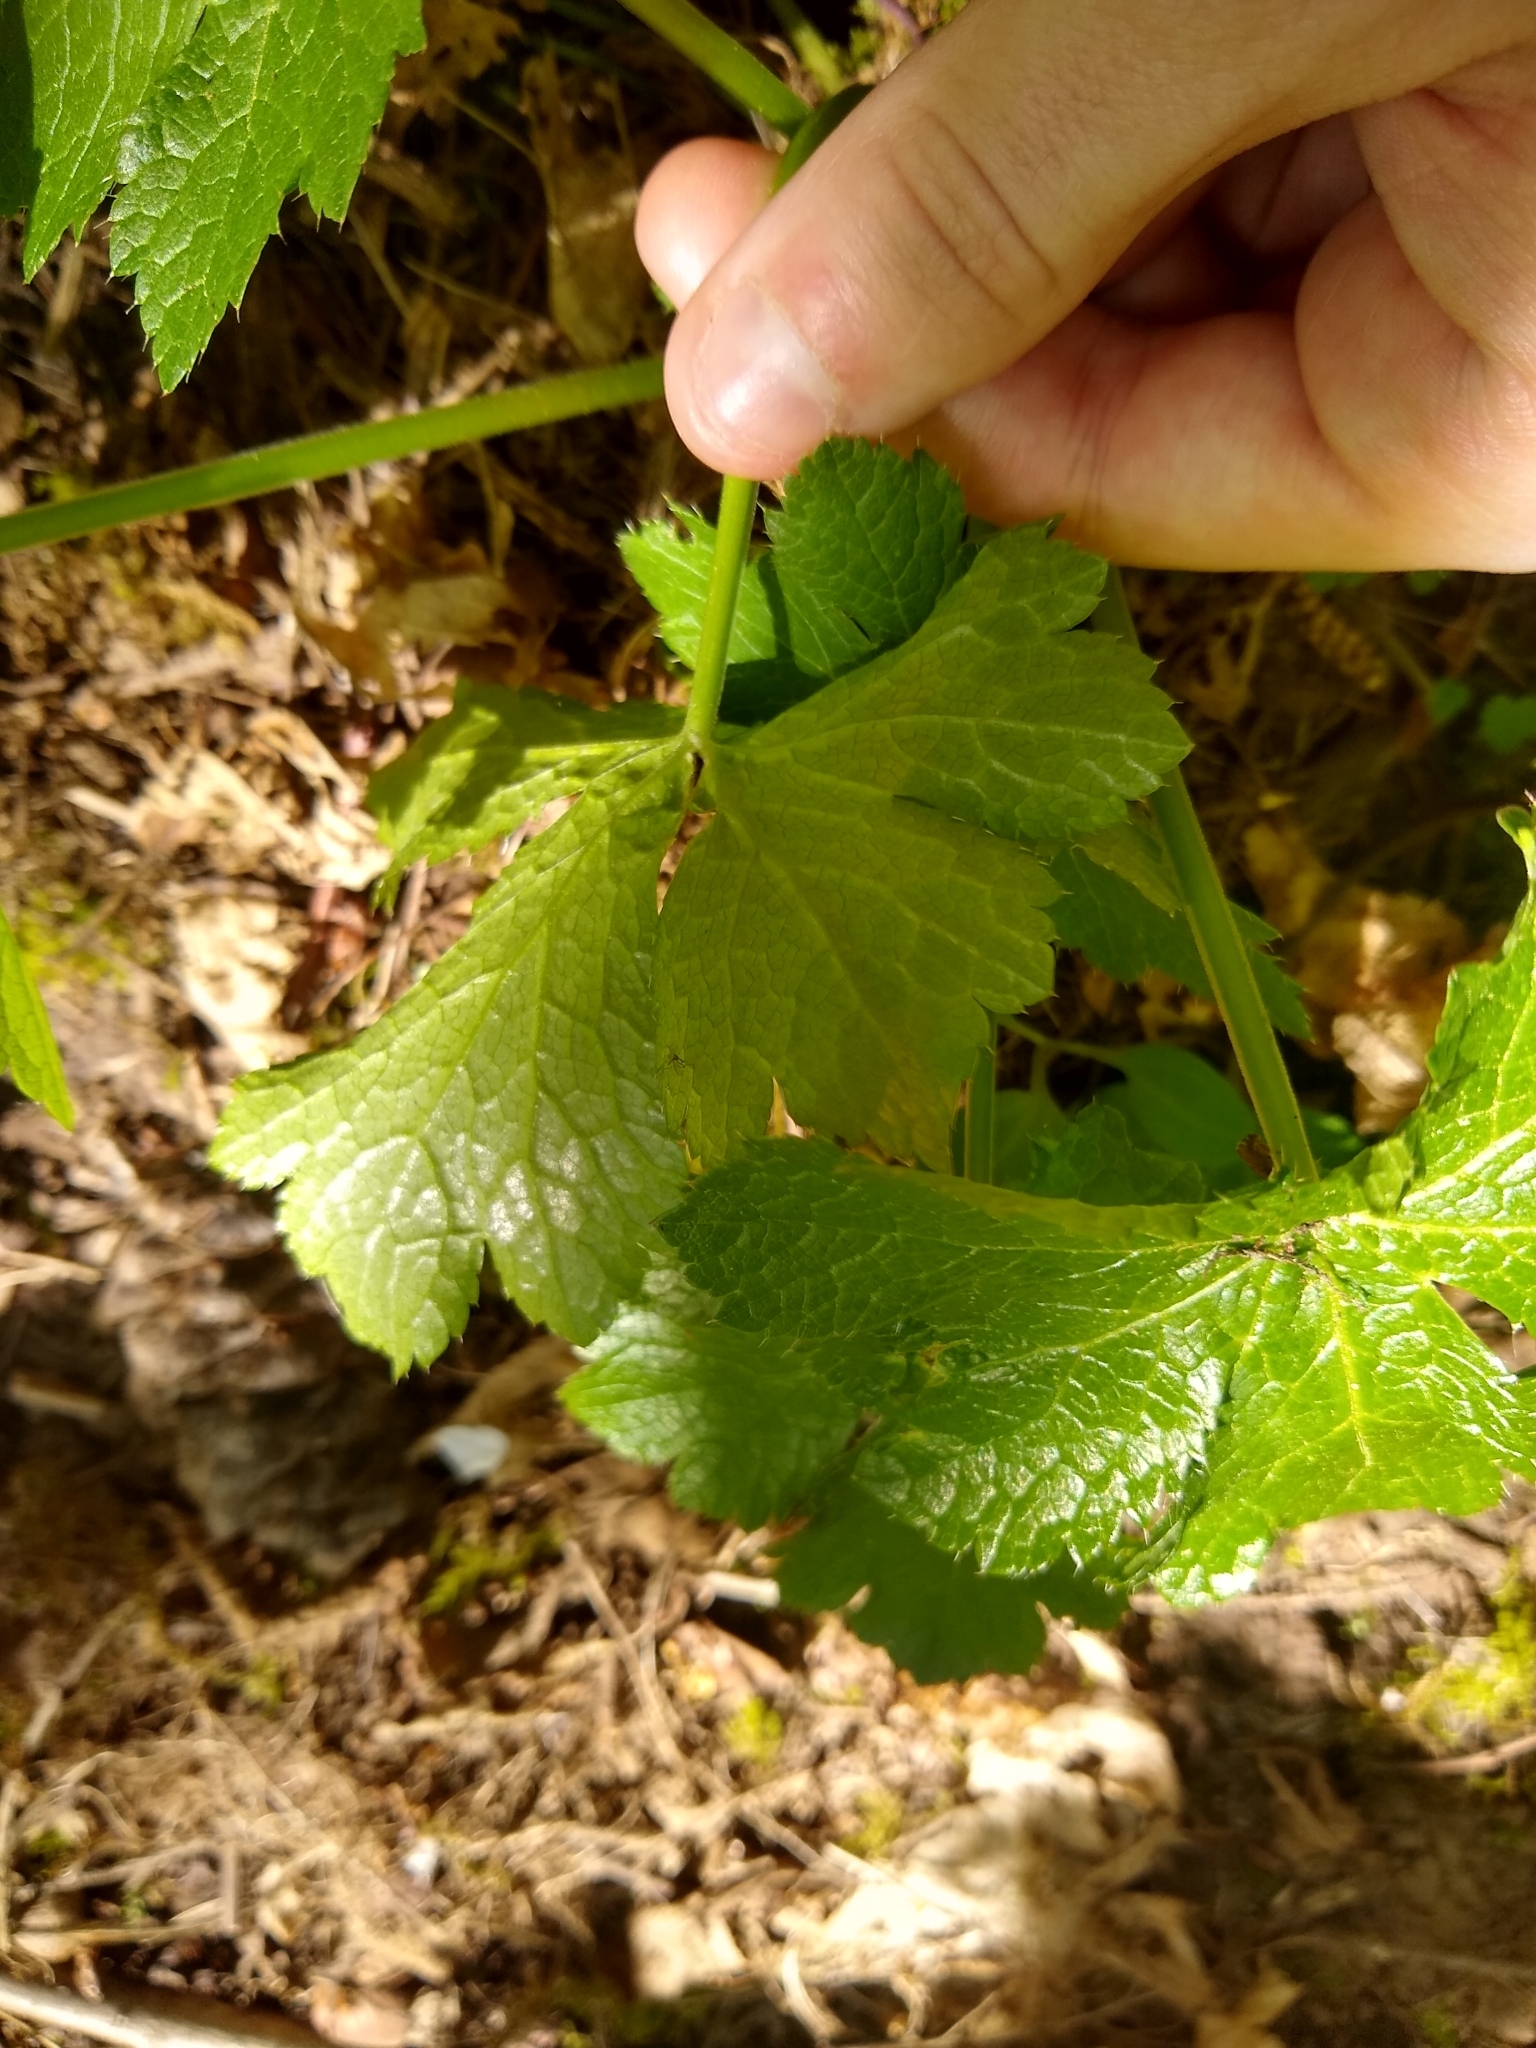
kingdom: Plantae
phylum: Tracheophyta
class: Magnoliopsida
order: Apiales
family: Apiaceae
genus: Sanicula
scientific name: Sanicula crassicaulis
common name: Western snakeroot
